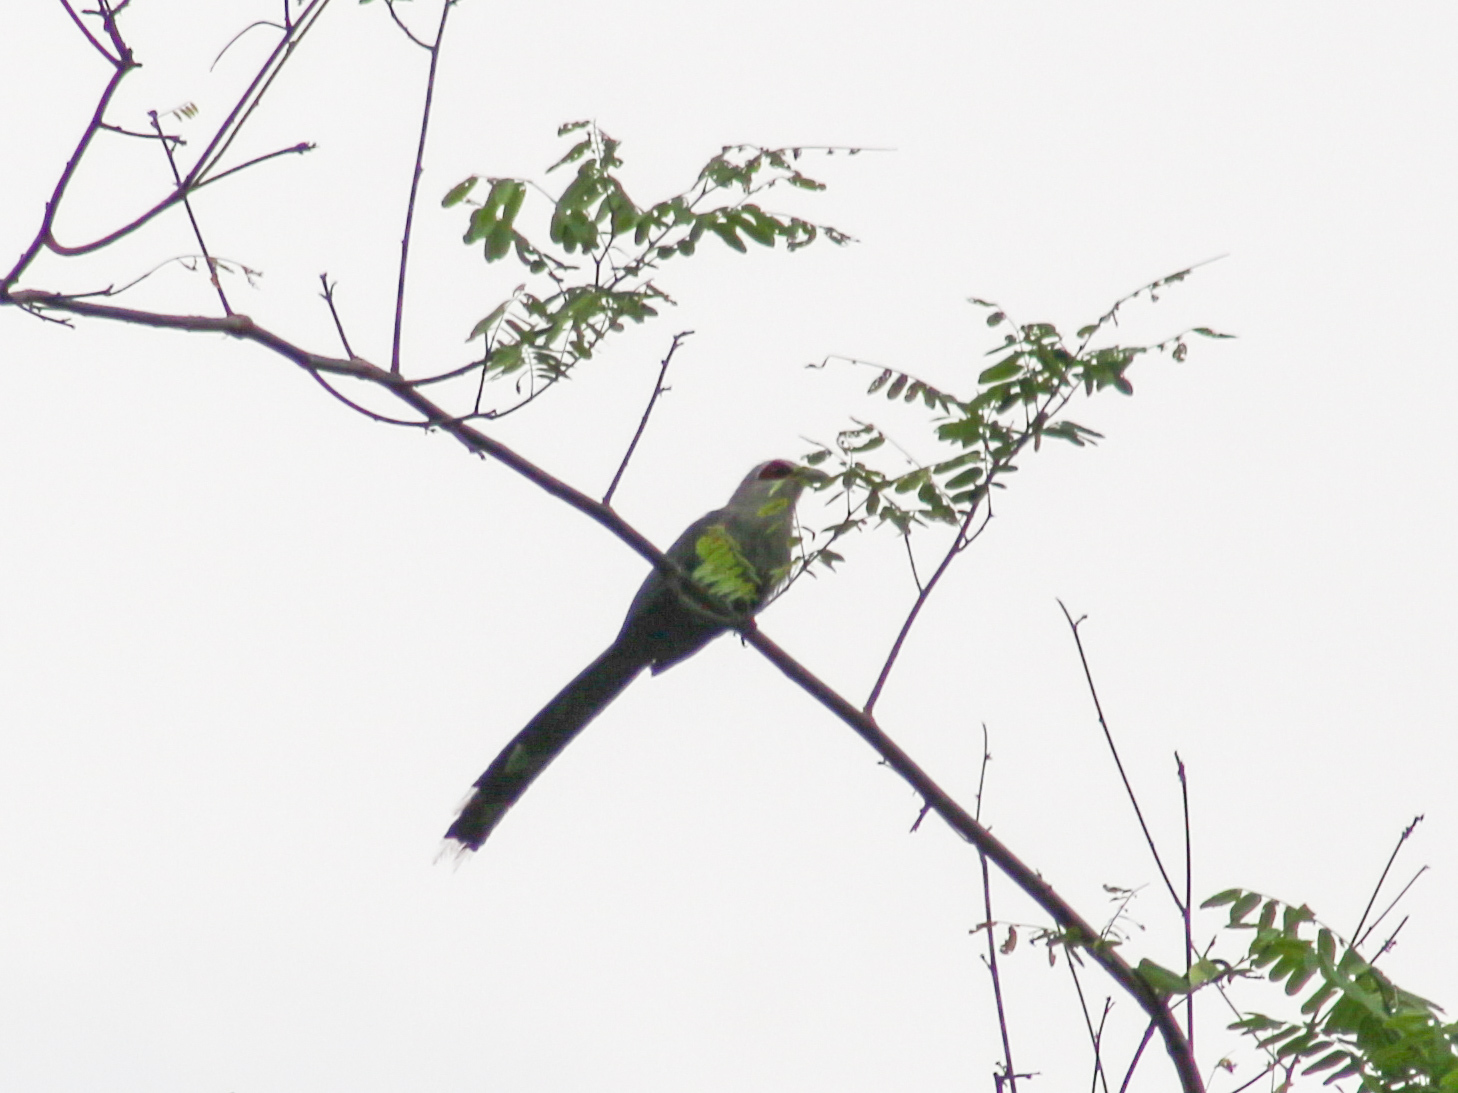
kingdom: Animalia
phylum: Chordata
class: Aves
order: Cuculiformes
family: Cuculidae
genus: Rhopodytes
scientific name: Rhopodytes tristis
